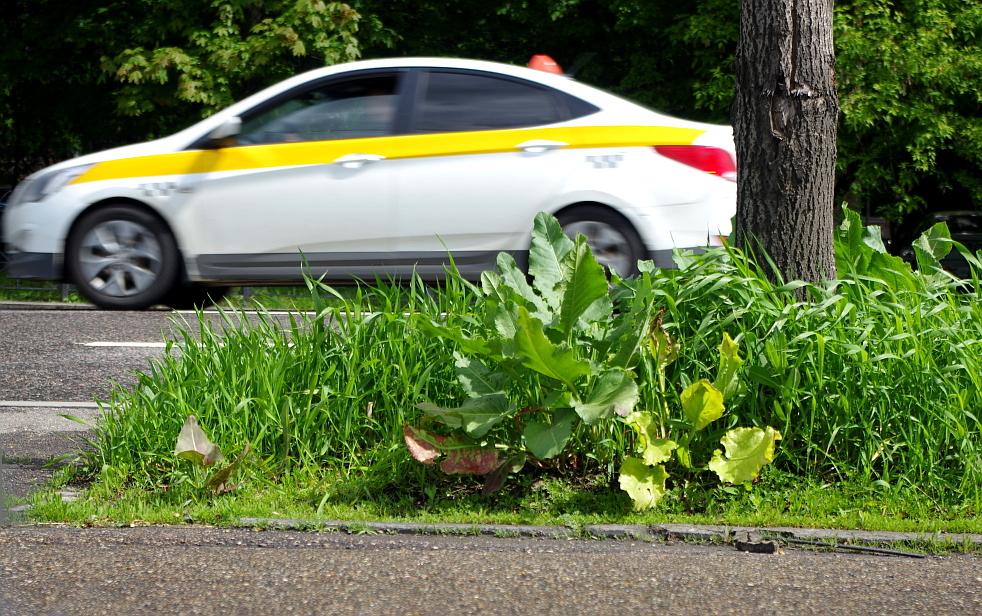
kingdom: Plantae
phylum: Tracheophyta
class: Magnoliopsida
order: Caryophyllales
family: Polygonaceae
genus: Rumex
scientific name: Rumex confertus
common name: Russian dock
